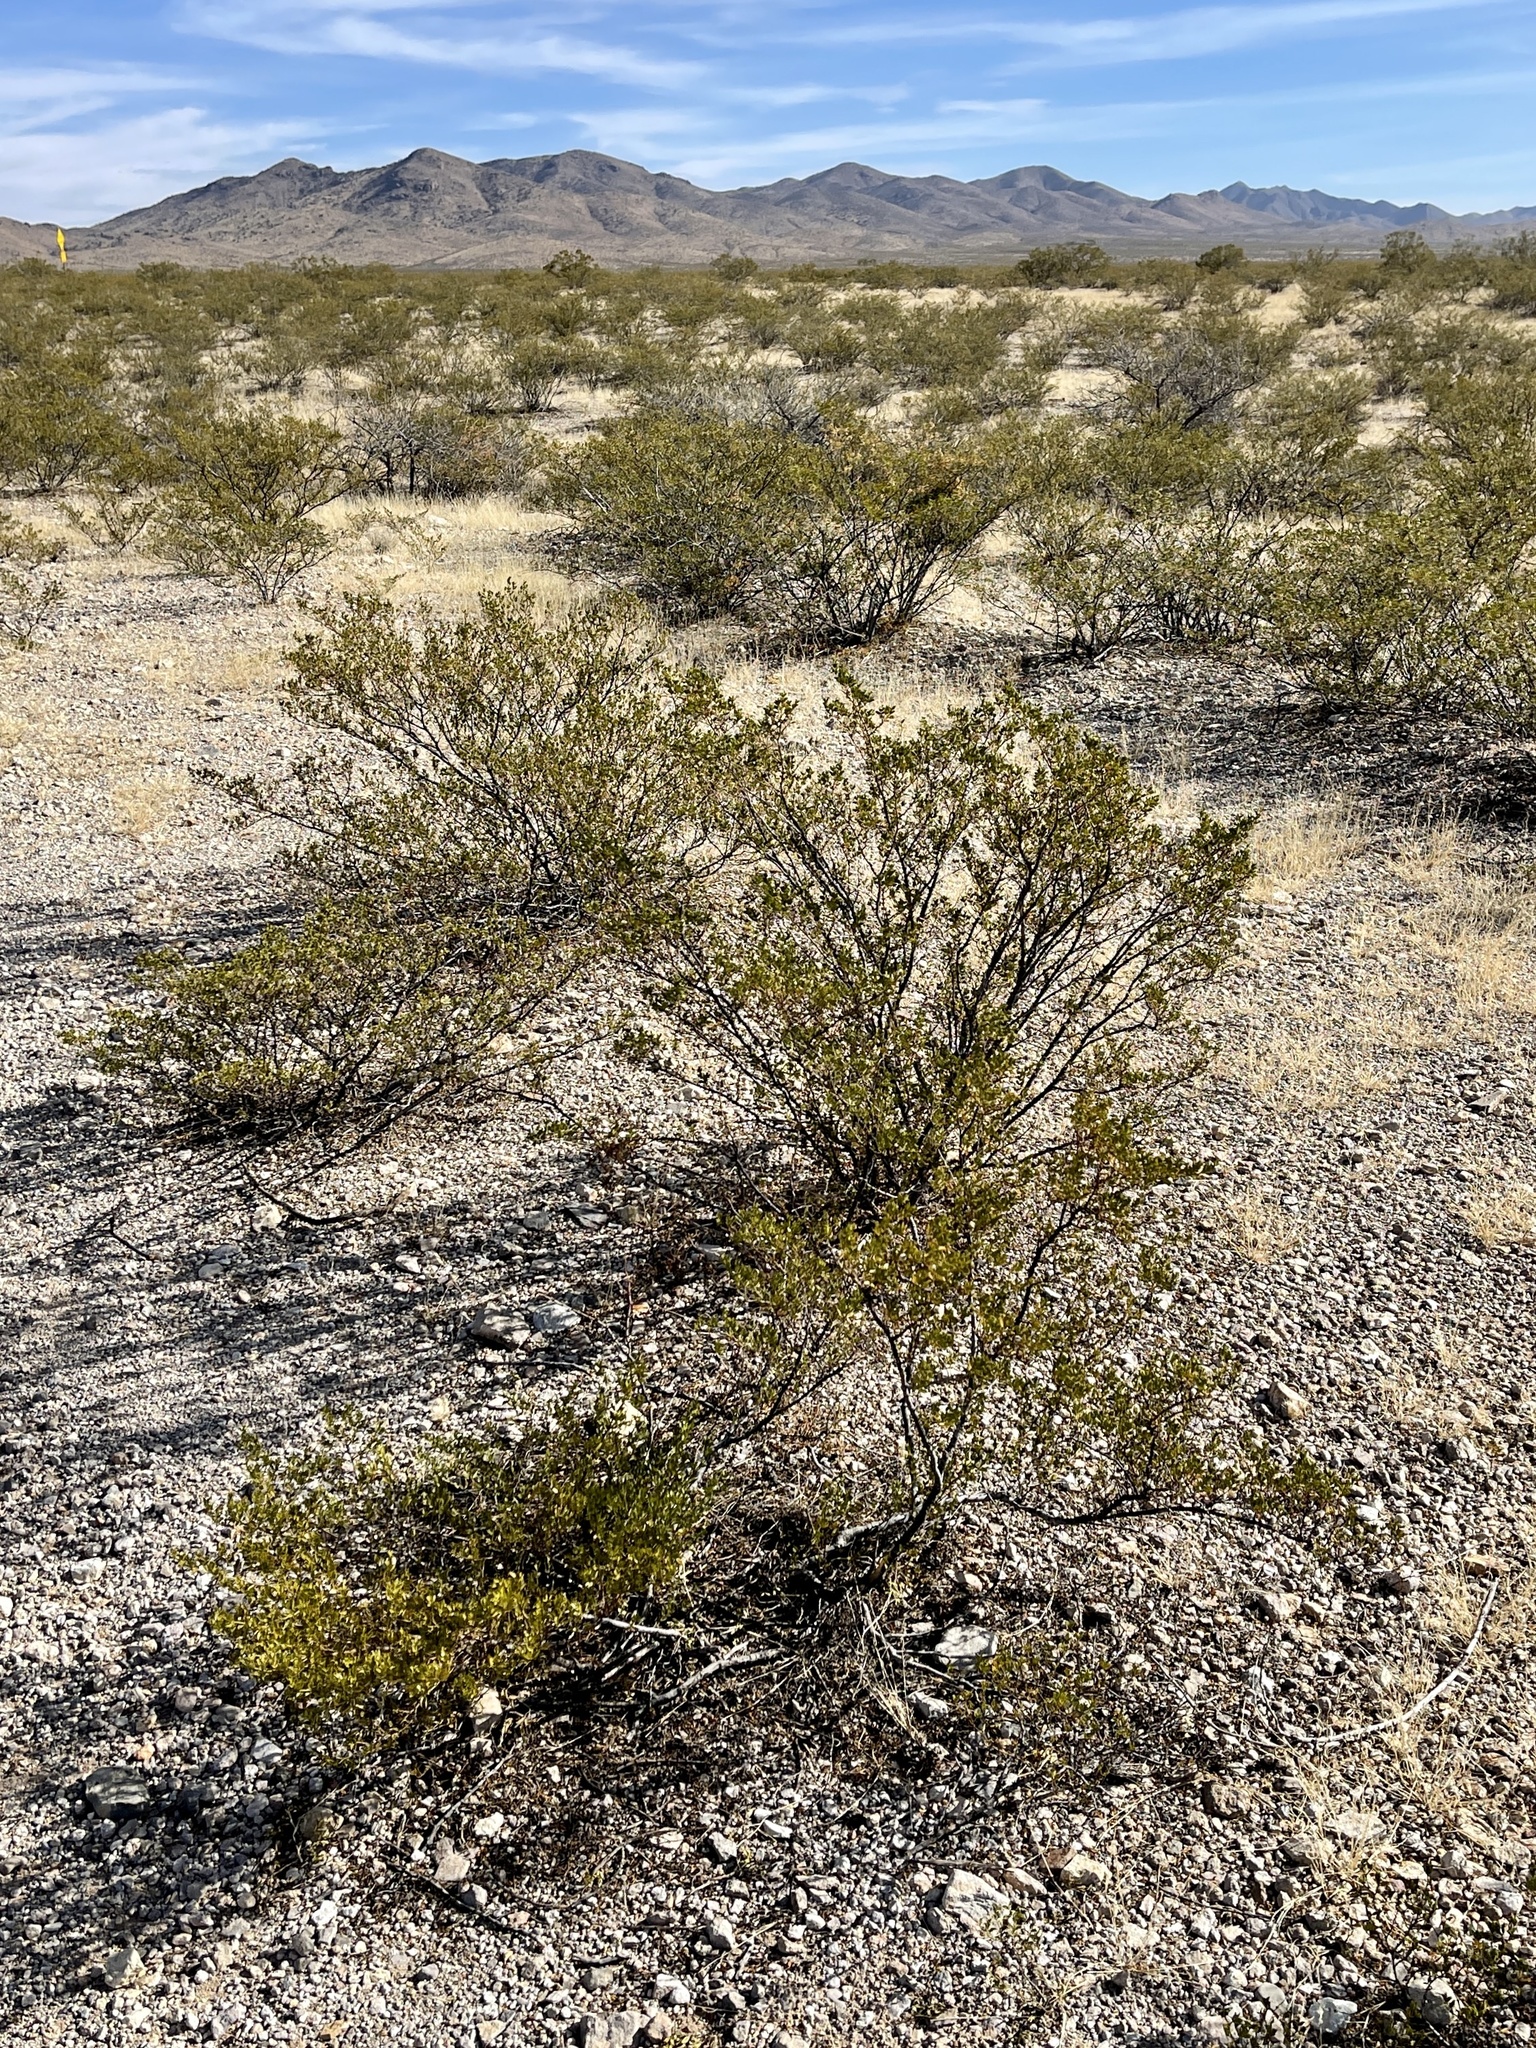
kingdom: Plantae
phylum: Tracheophyta
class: Magnoliopsida
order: Zygophyllales
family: Zygophyllaceae
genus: Larrea
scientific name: Larrea tridentata
